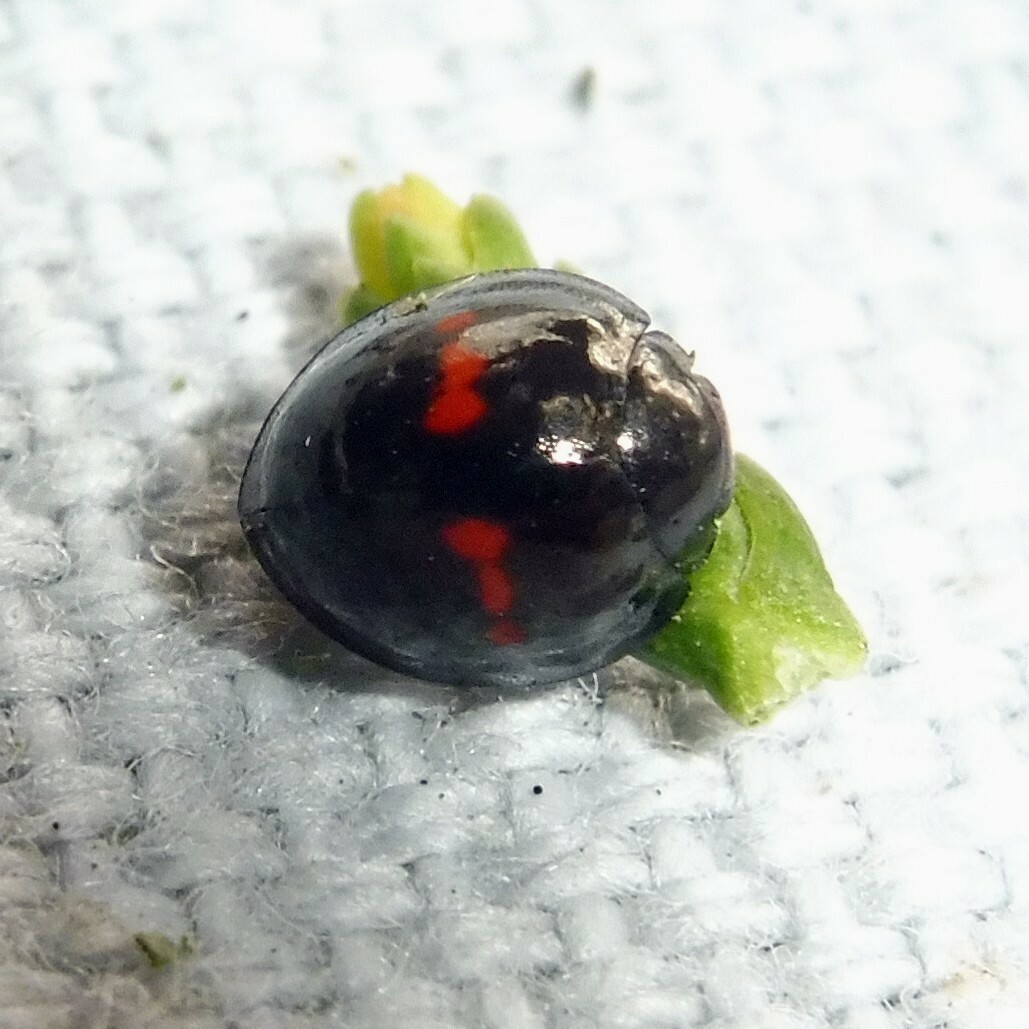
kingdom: Animalia
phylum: Arthropoda
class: Insecta
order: Coleoptera
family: Coccinellidae
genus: Chilocorus
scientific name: Chilocorus bipustulatus
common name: Heather ladybird
